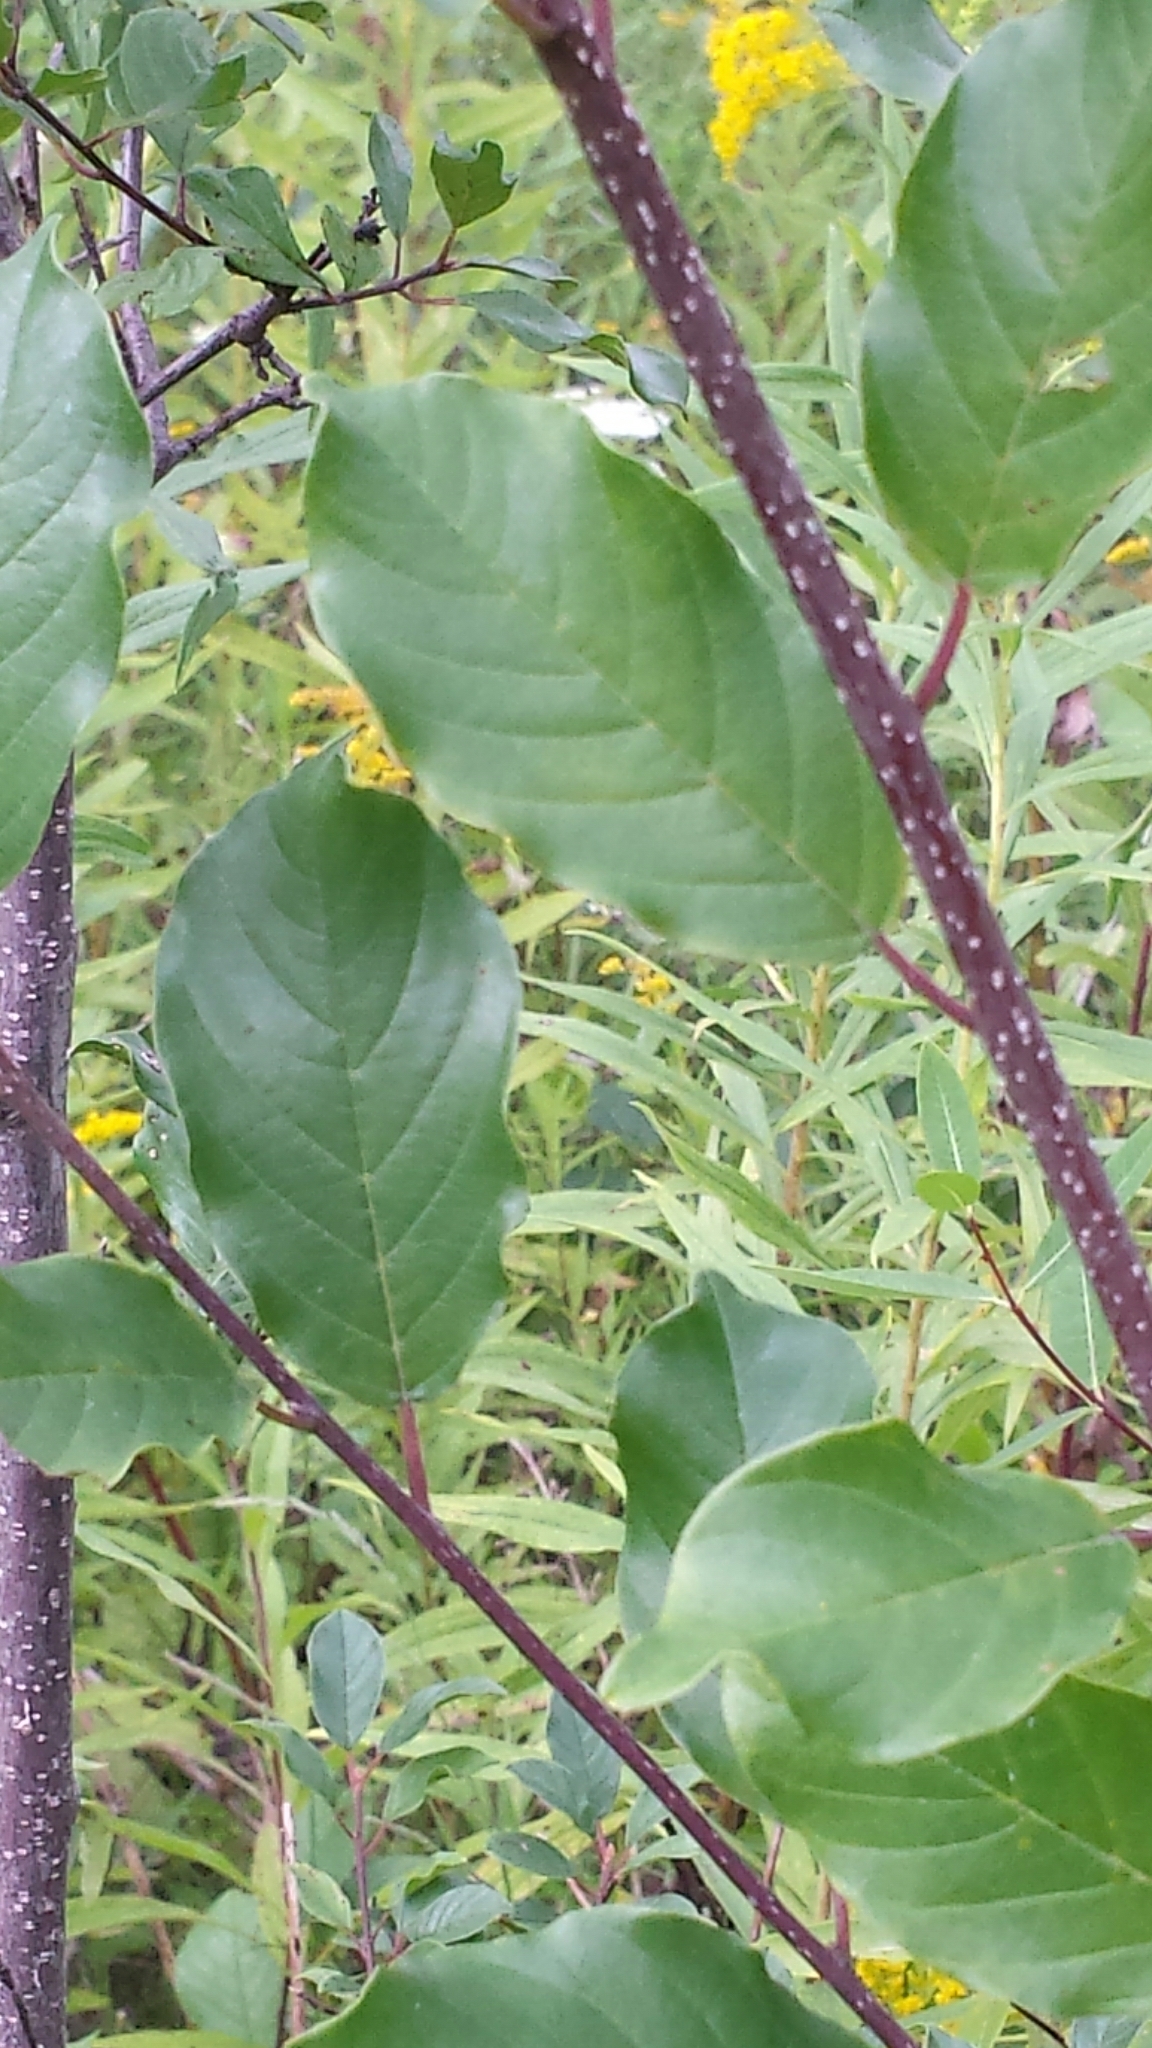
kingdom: Plantae
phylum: Tracheophyta
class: Magnoliopsida
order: Rosales
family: Rhamnaceae
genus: Frangula
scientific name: Frangula alnus
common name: Alder buckthorn
